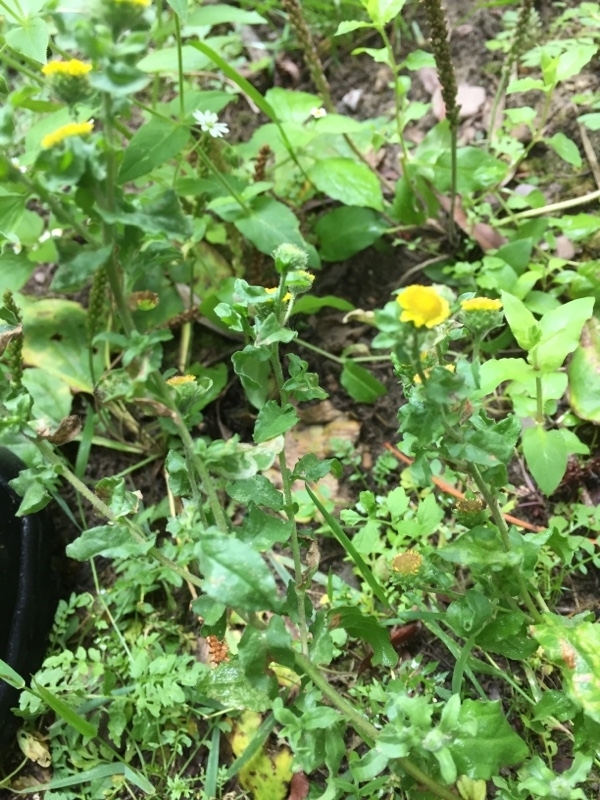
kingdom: Plantae
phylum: Tracheophyta
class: Magnoliopsida
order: Asterales
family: Asteraceae
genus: Pulicaria
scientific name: Pulicaria vulgaris
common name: Small fleabane
